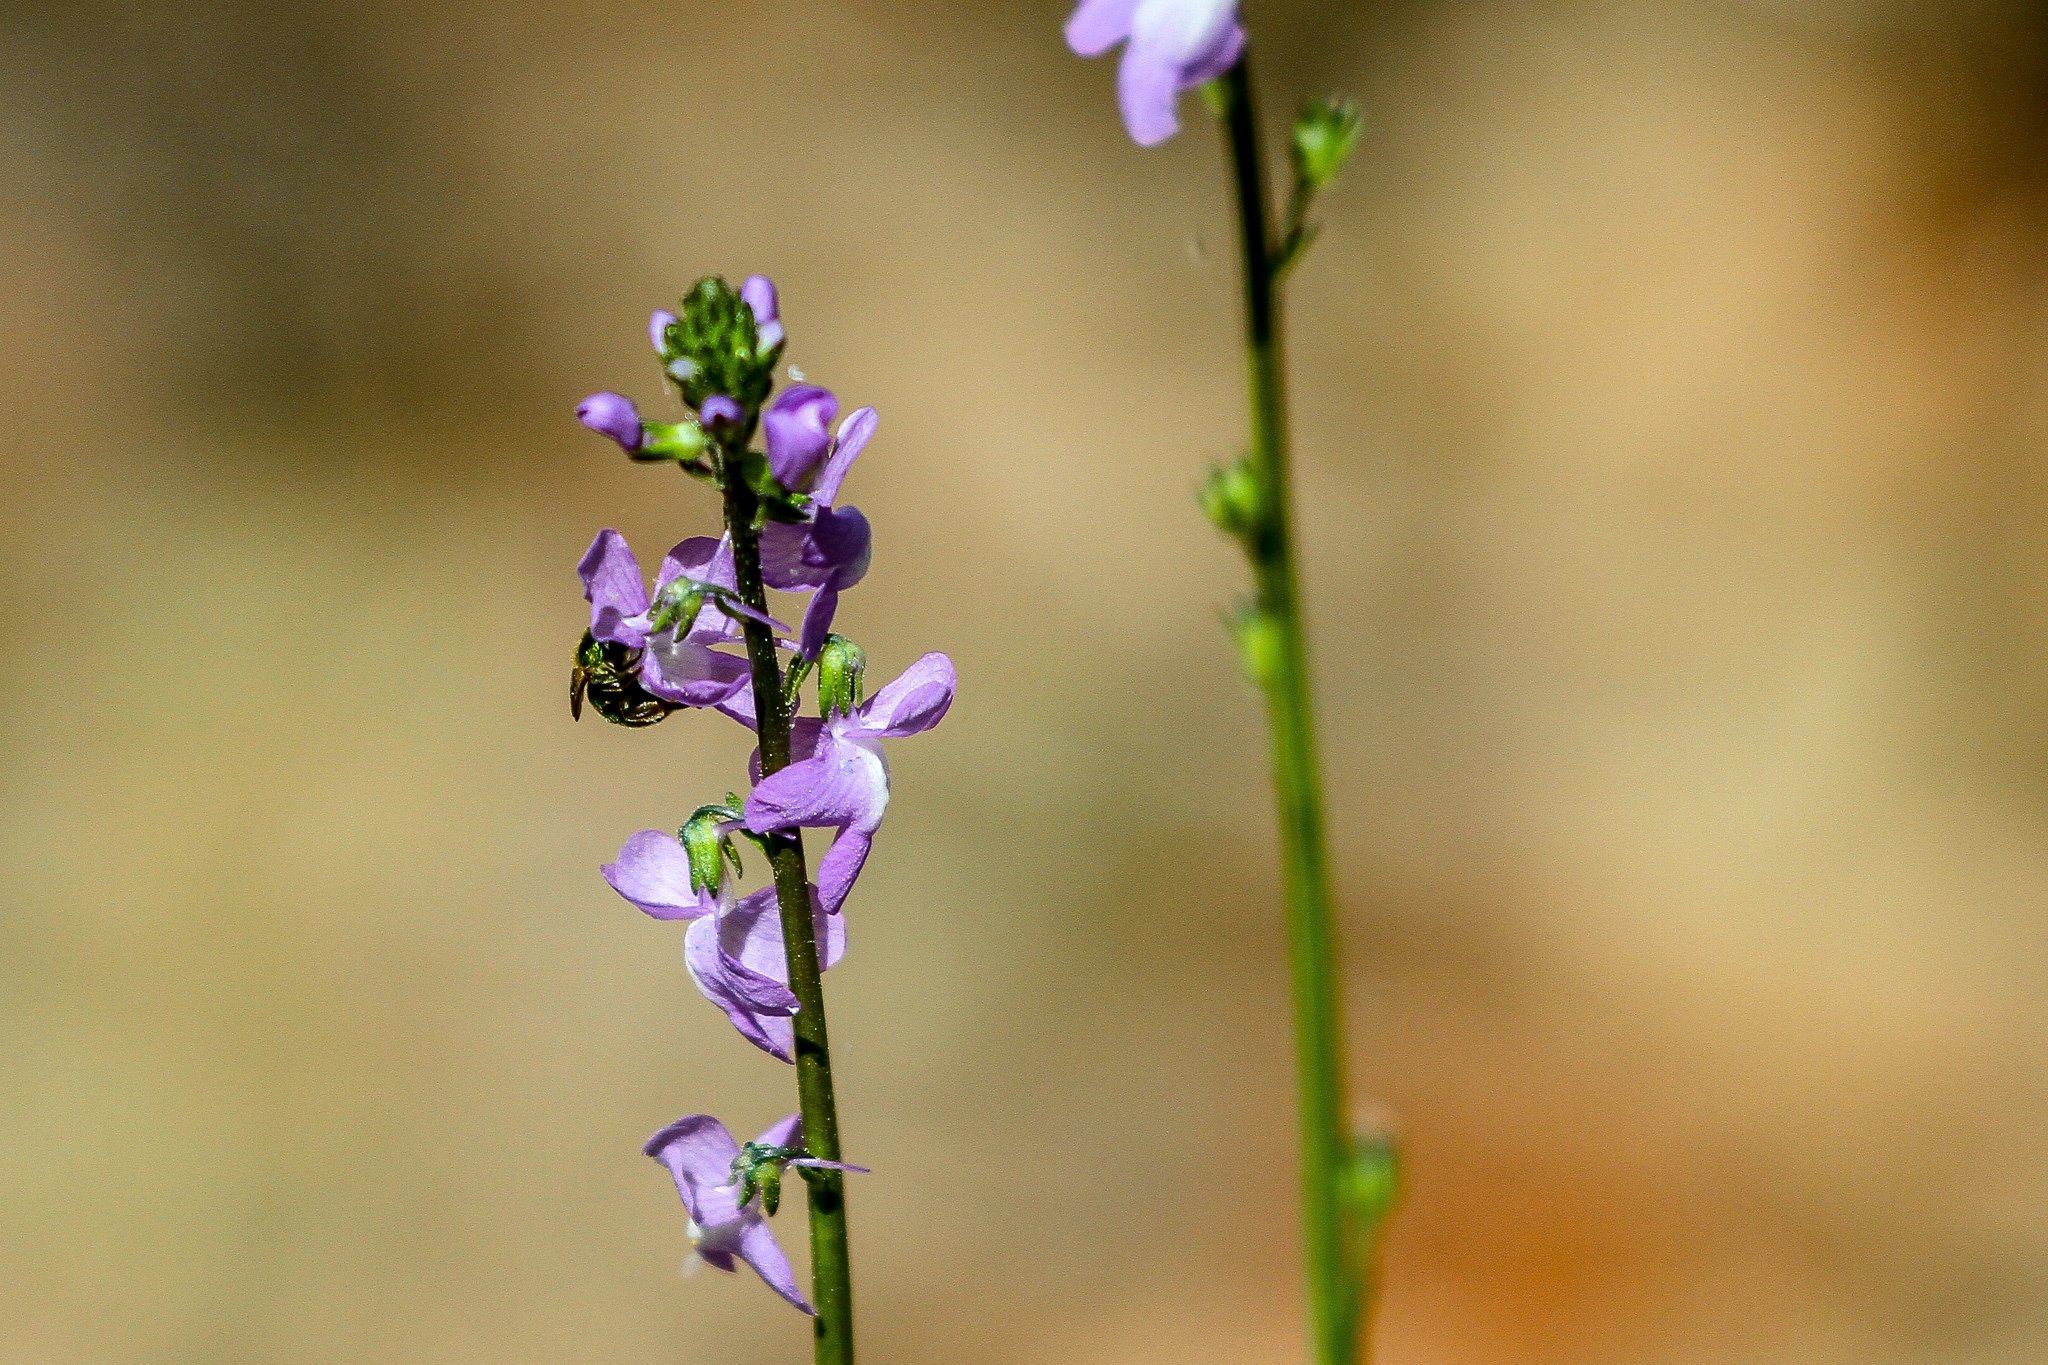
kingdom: Plantae
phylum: Tracheophyta
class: Magnoliopsida
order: Lamiales
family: Plantaginaceae
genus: Nuttallanthus
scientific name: Nuttallanthus canadensis
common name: Blue toadflax
